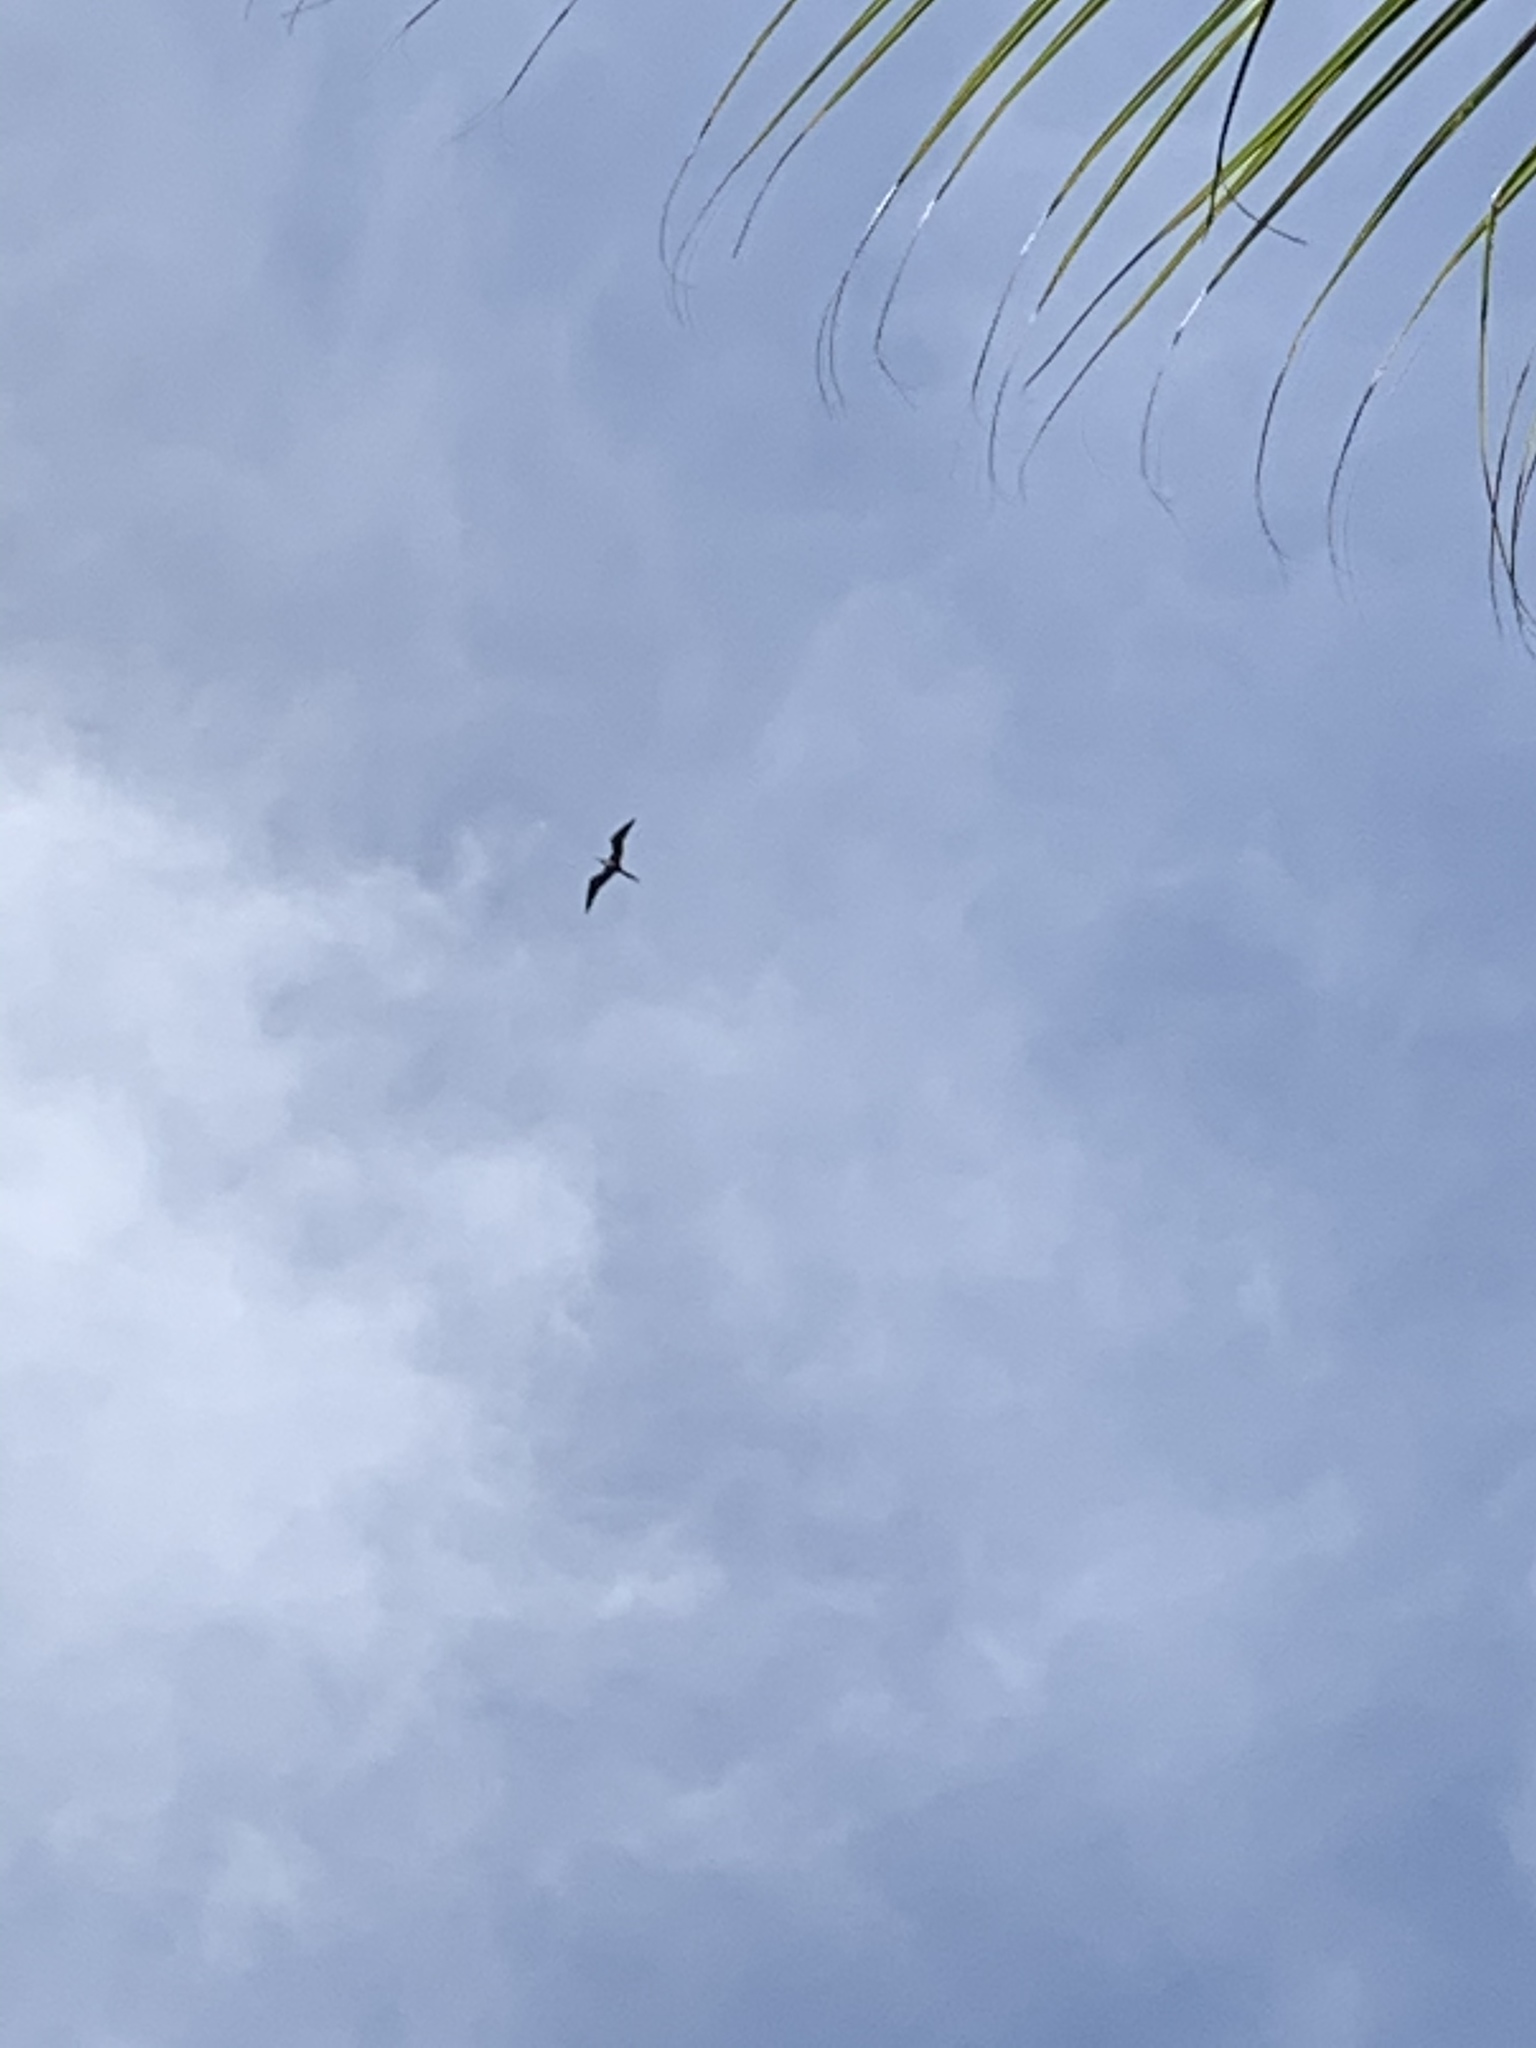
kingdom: Animalia
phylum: Chordata
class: Aves
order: Suliformes
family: Fregatidae
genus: Fregata
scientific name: Fregata magnificens
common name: Magnificent frigatebird
